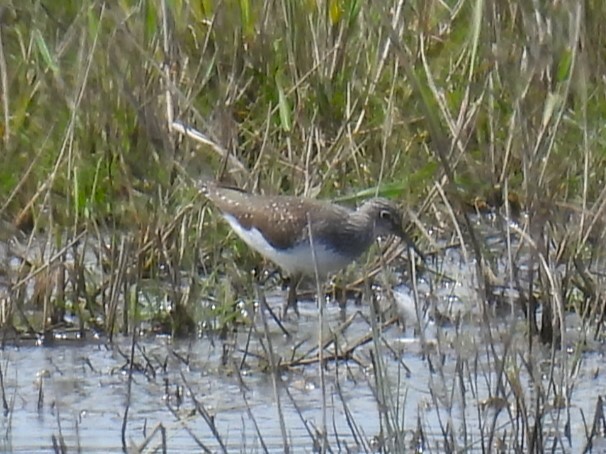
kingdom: Animalia
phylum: Chordata
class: Aves
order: Charadriiformes
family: Scolopacidae
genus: Tringa
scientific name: Tringa ochropus
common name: Green sandpiper
